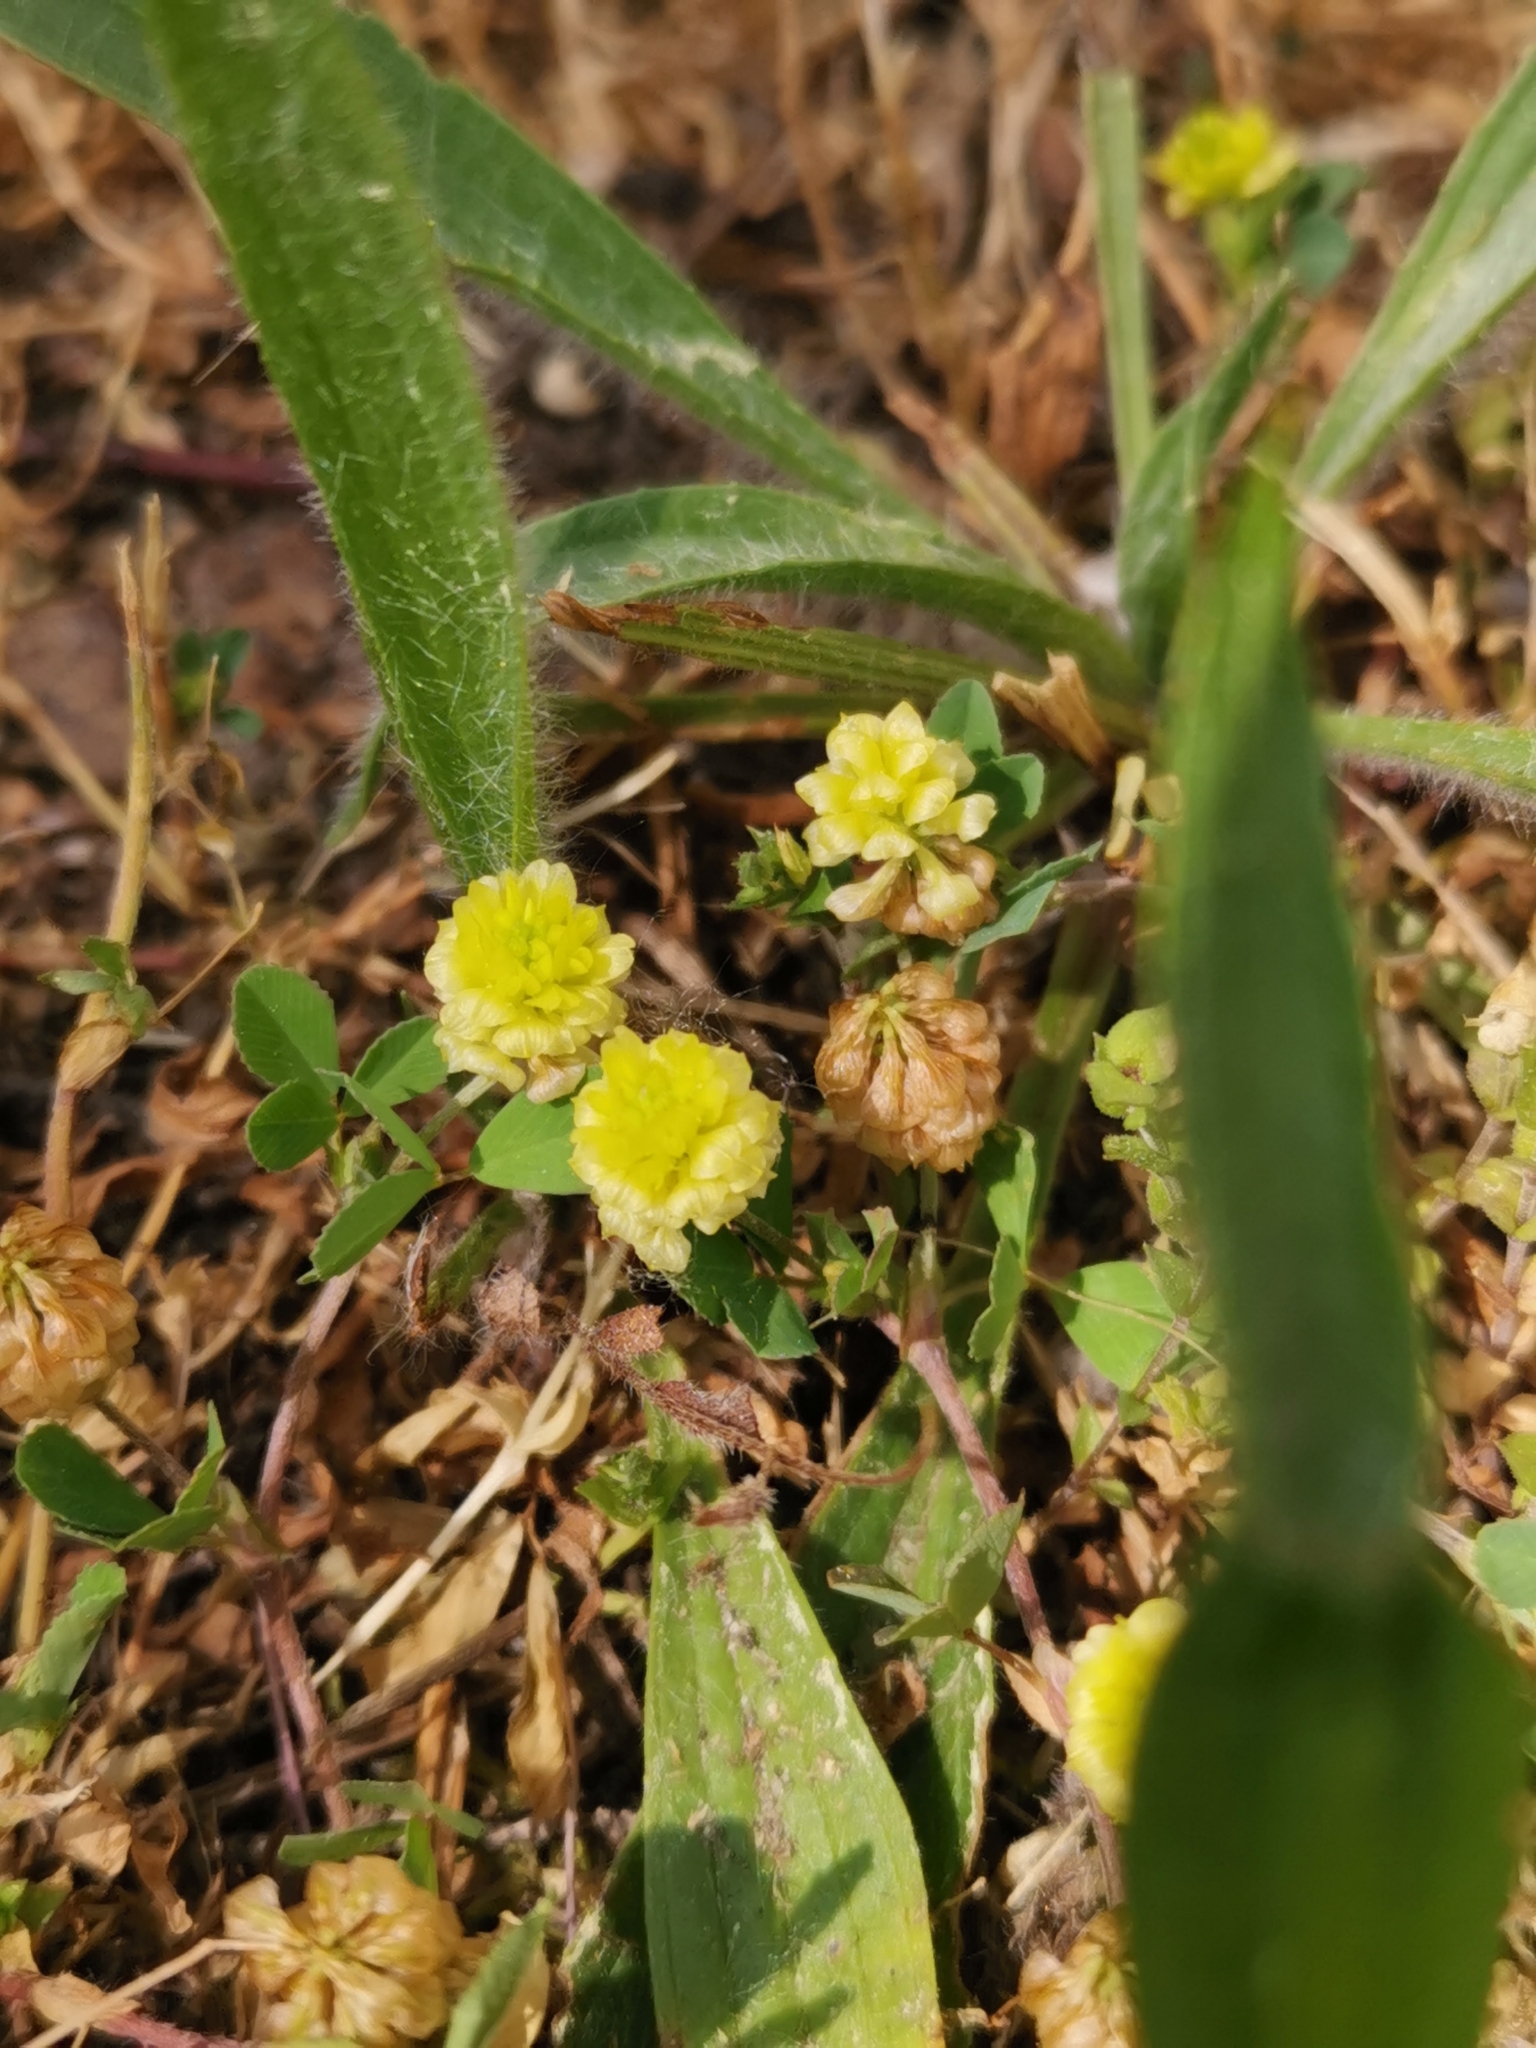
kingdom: Plantae
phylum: Tracheophyta
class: Magnoliopsida
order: Fabales
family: Fabaceae
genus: Trifolium
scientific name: Trifolium campestre
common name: Field clover
